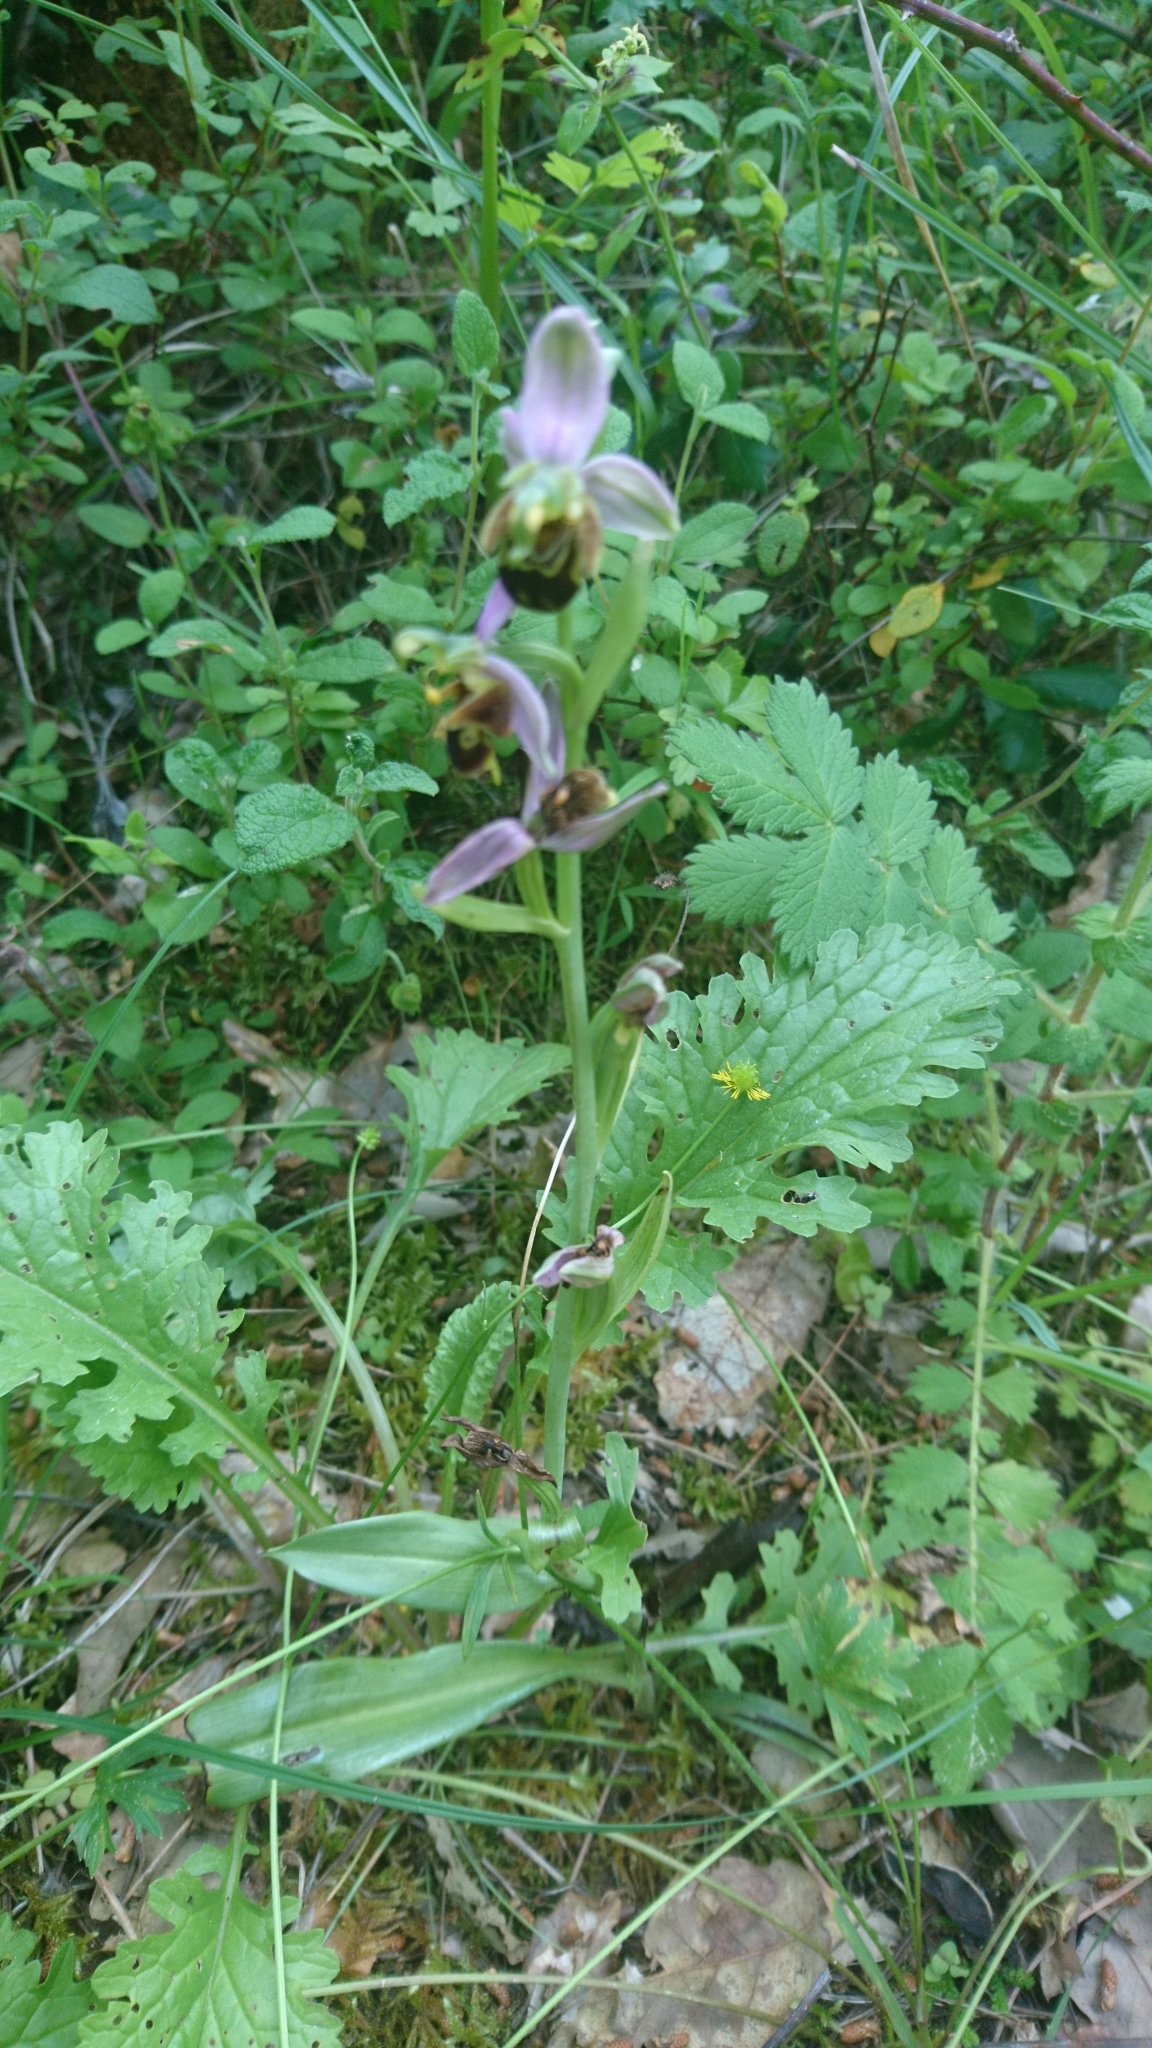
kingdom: Plantae
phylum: Tracheophyta
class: Liliopsida
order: Asparagales
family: Orchidaceae
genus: Ophrys
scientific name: Ophrys apifera
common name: Bee orchid
